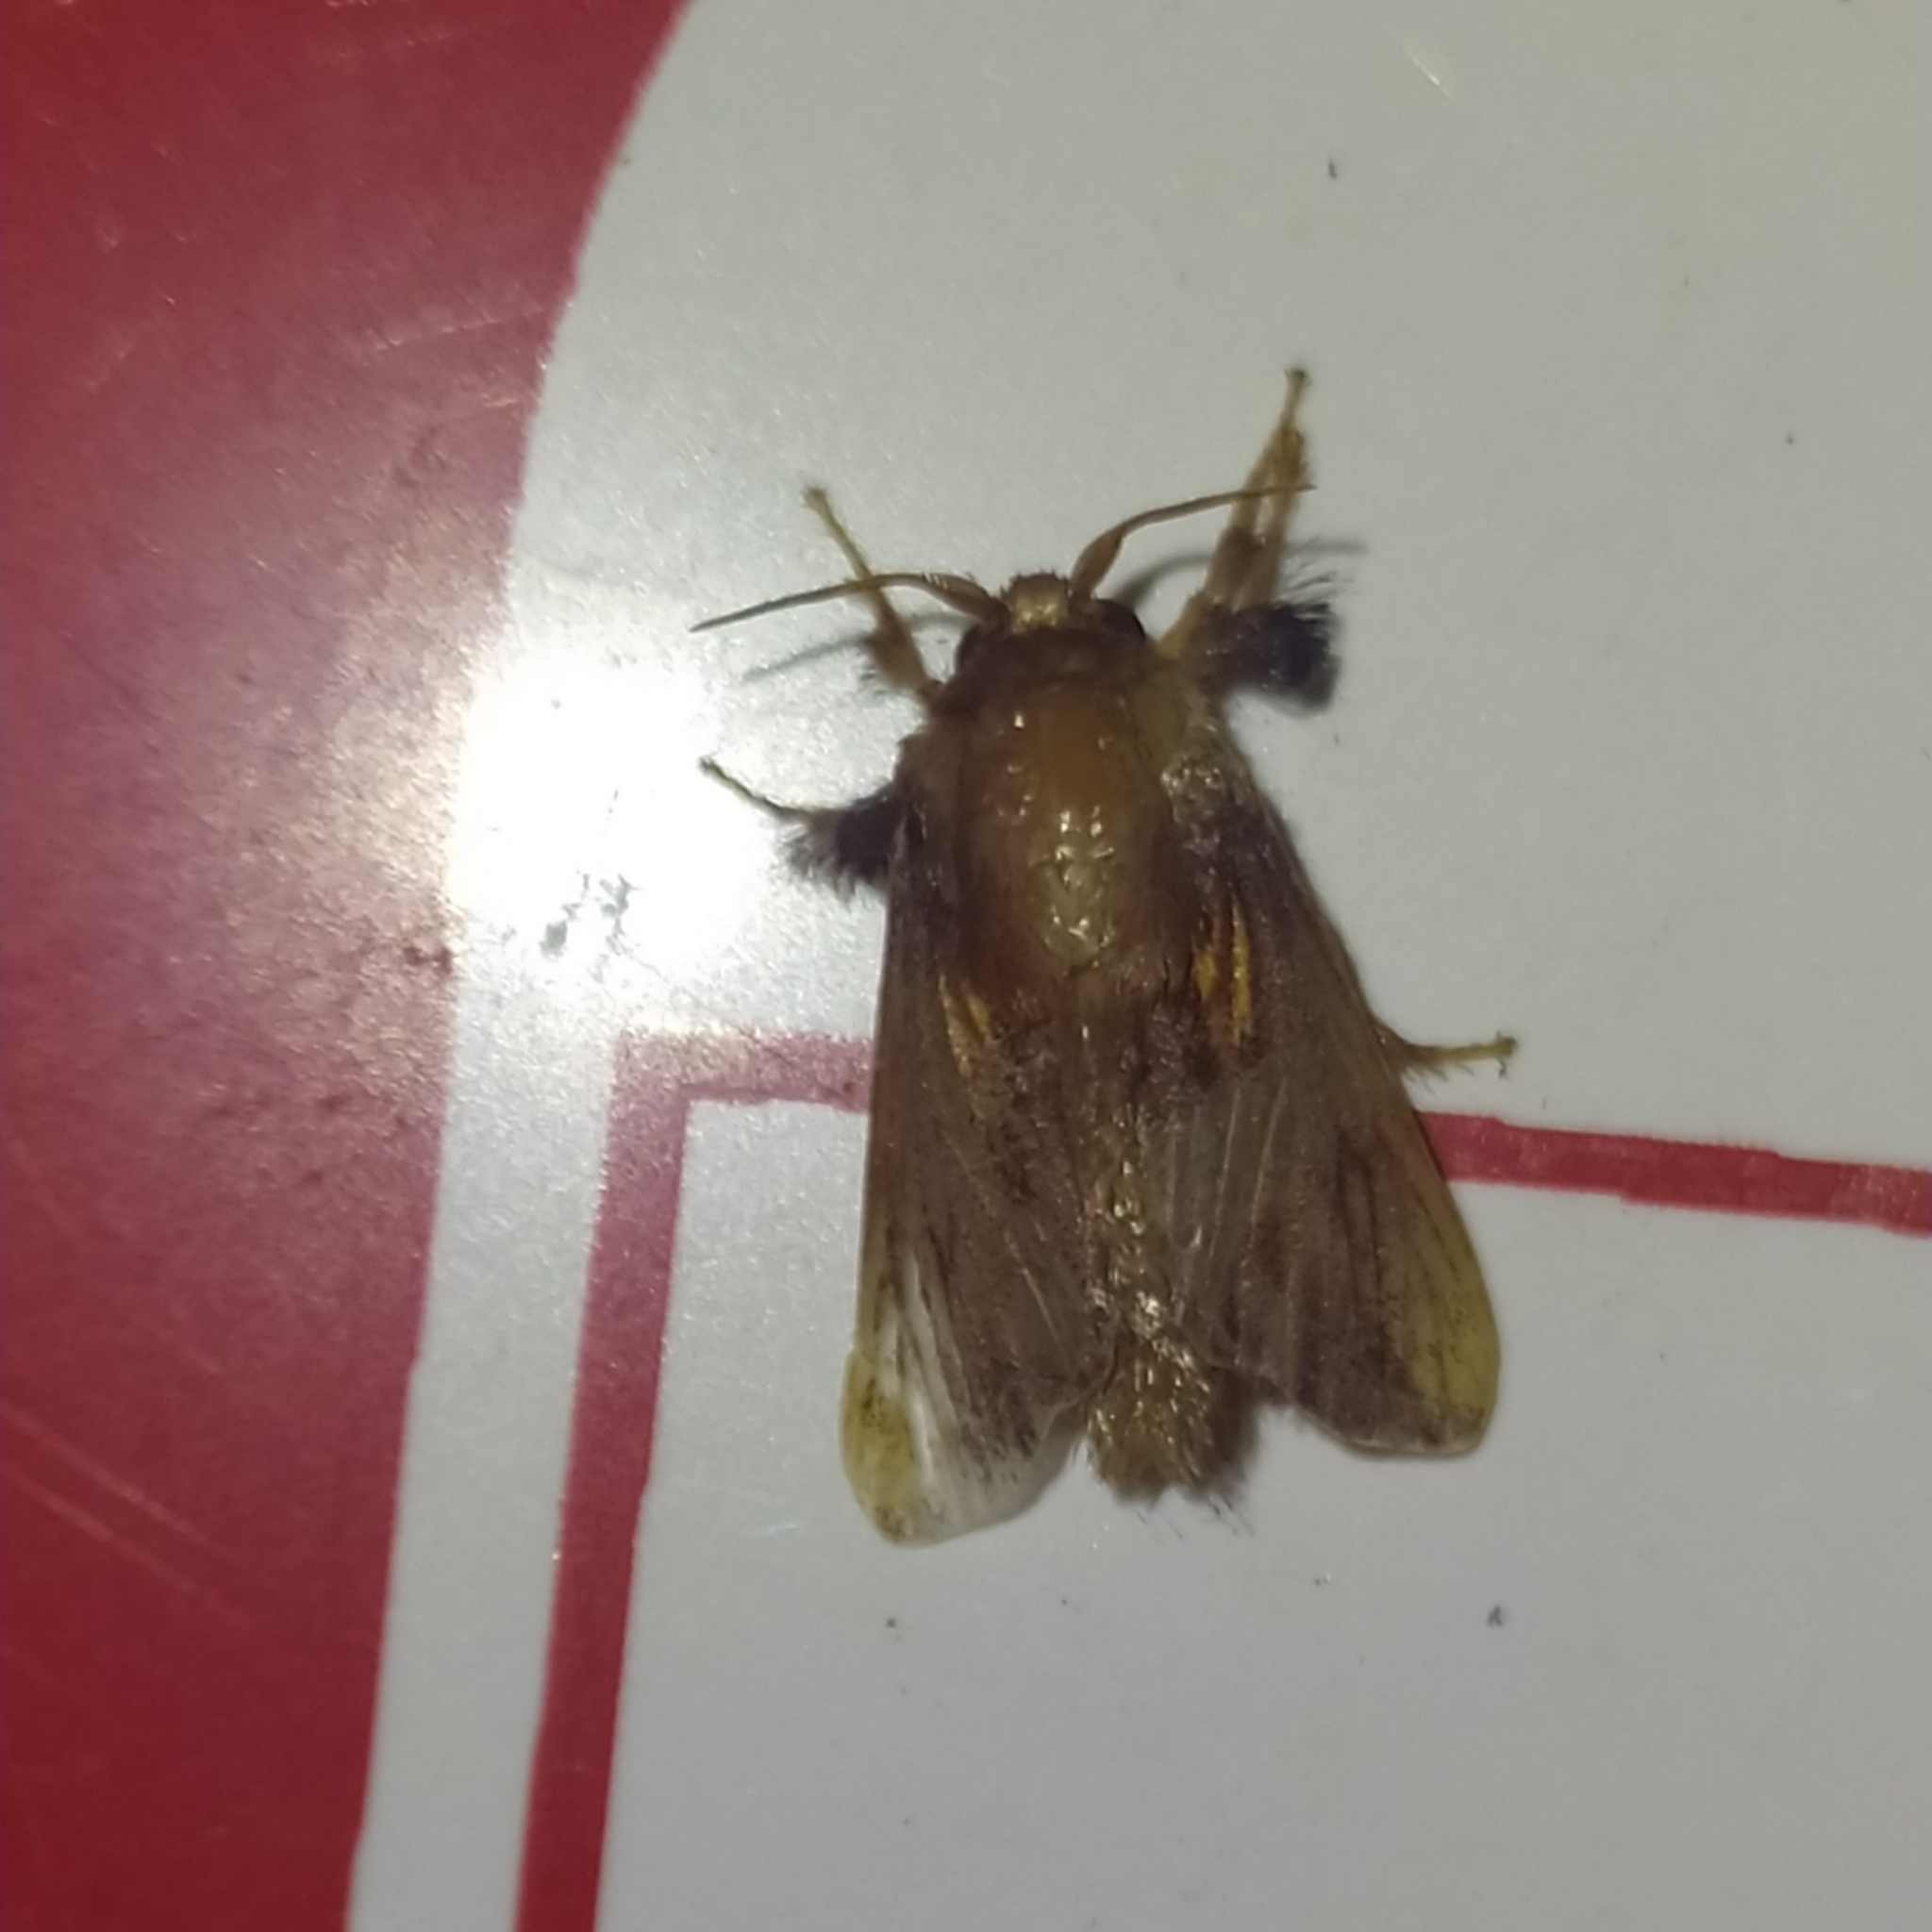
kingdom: Animalia
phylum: Arthropoda
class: Insecta
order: Lepidoptera
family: Limacodidae
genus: Talima
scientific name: Talima ingenour
